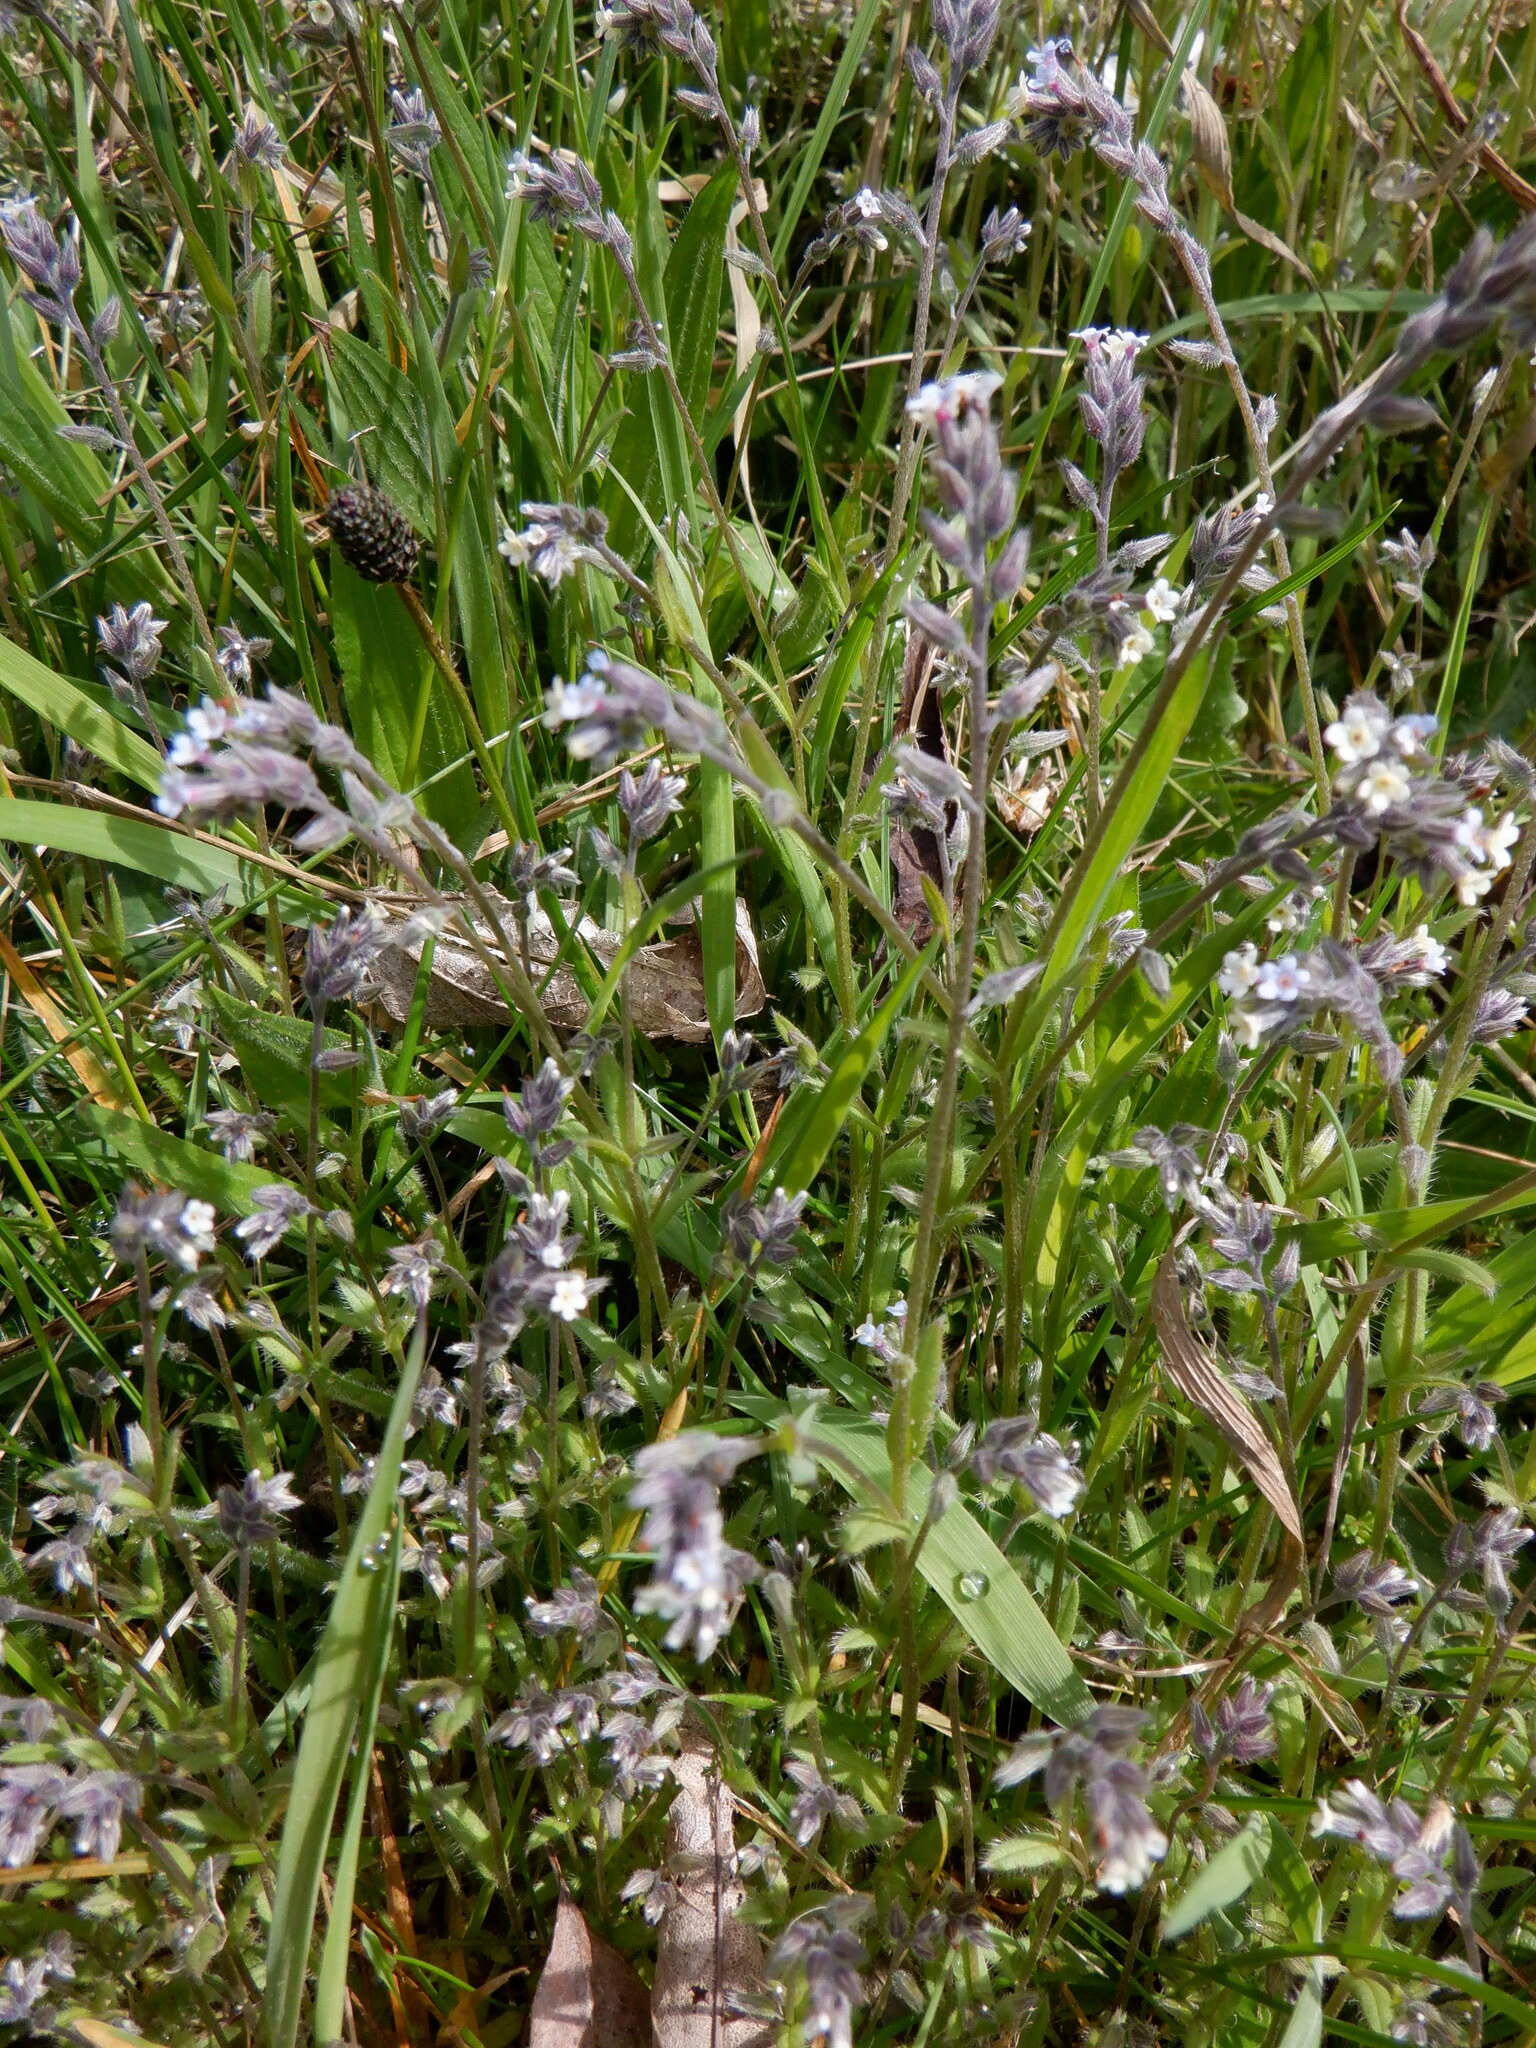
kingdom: Plantae
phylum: Tracheophyta
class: Magnoliopsida
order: Boraginales
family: Boraginaceae
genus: Myosotis
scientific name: Myosotis discolor
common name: Changing forget-me-not
